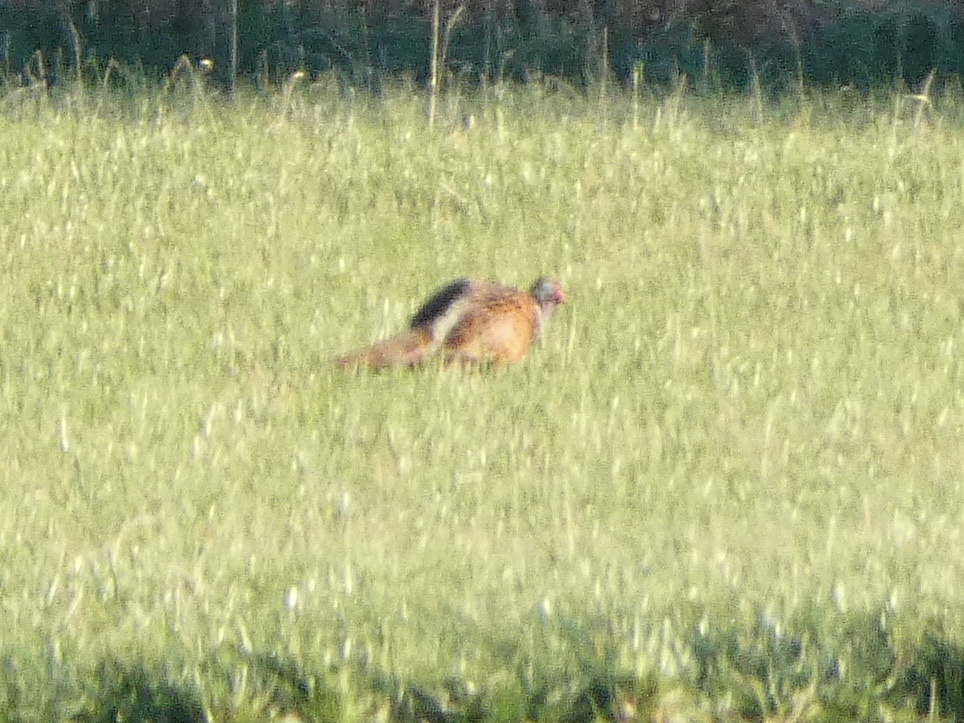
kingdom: Animalia
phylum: Chordata
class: Aves
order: Galliformes
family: Phasianidae
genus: Phasianus
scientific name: Phasianus colchicus
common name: Common pheasant
